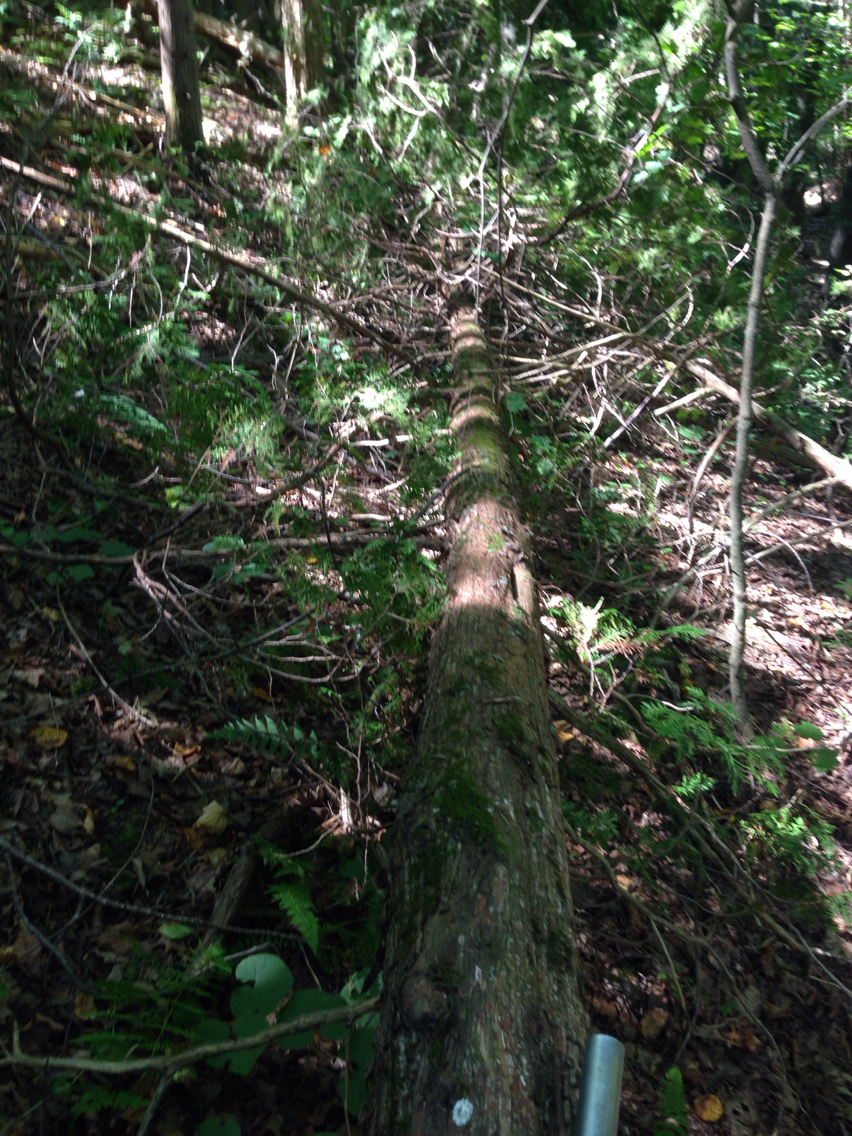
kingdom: Plantae
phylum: Tracheophyta
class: Pinopsida
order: Pinales
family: Cupressaceae
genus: Thuja
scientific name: Thuja occidentalis
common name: Northern white-cedar
